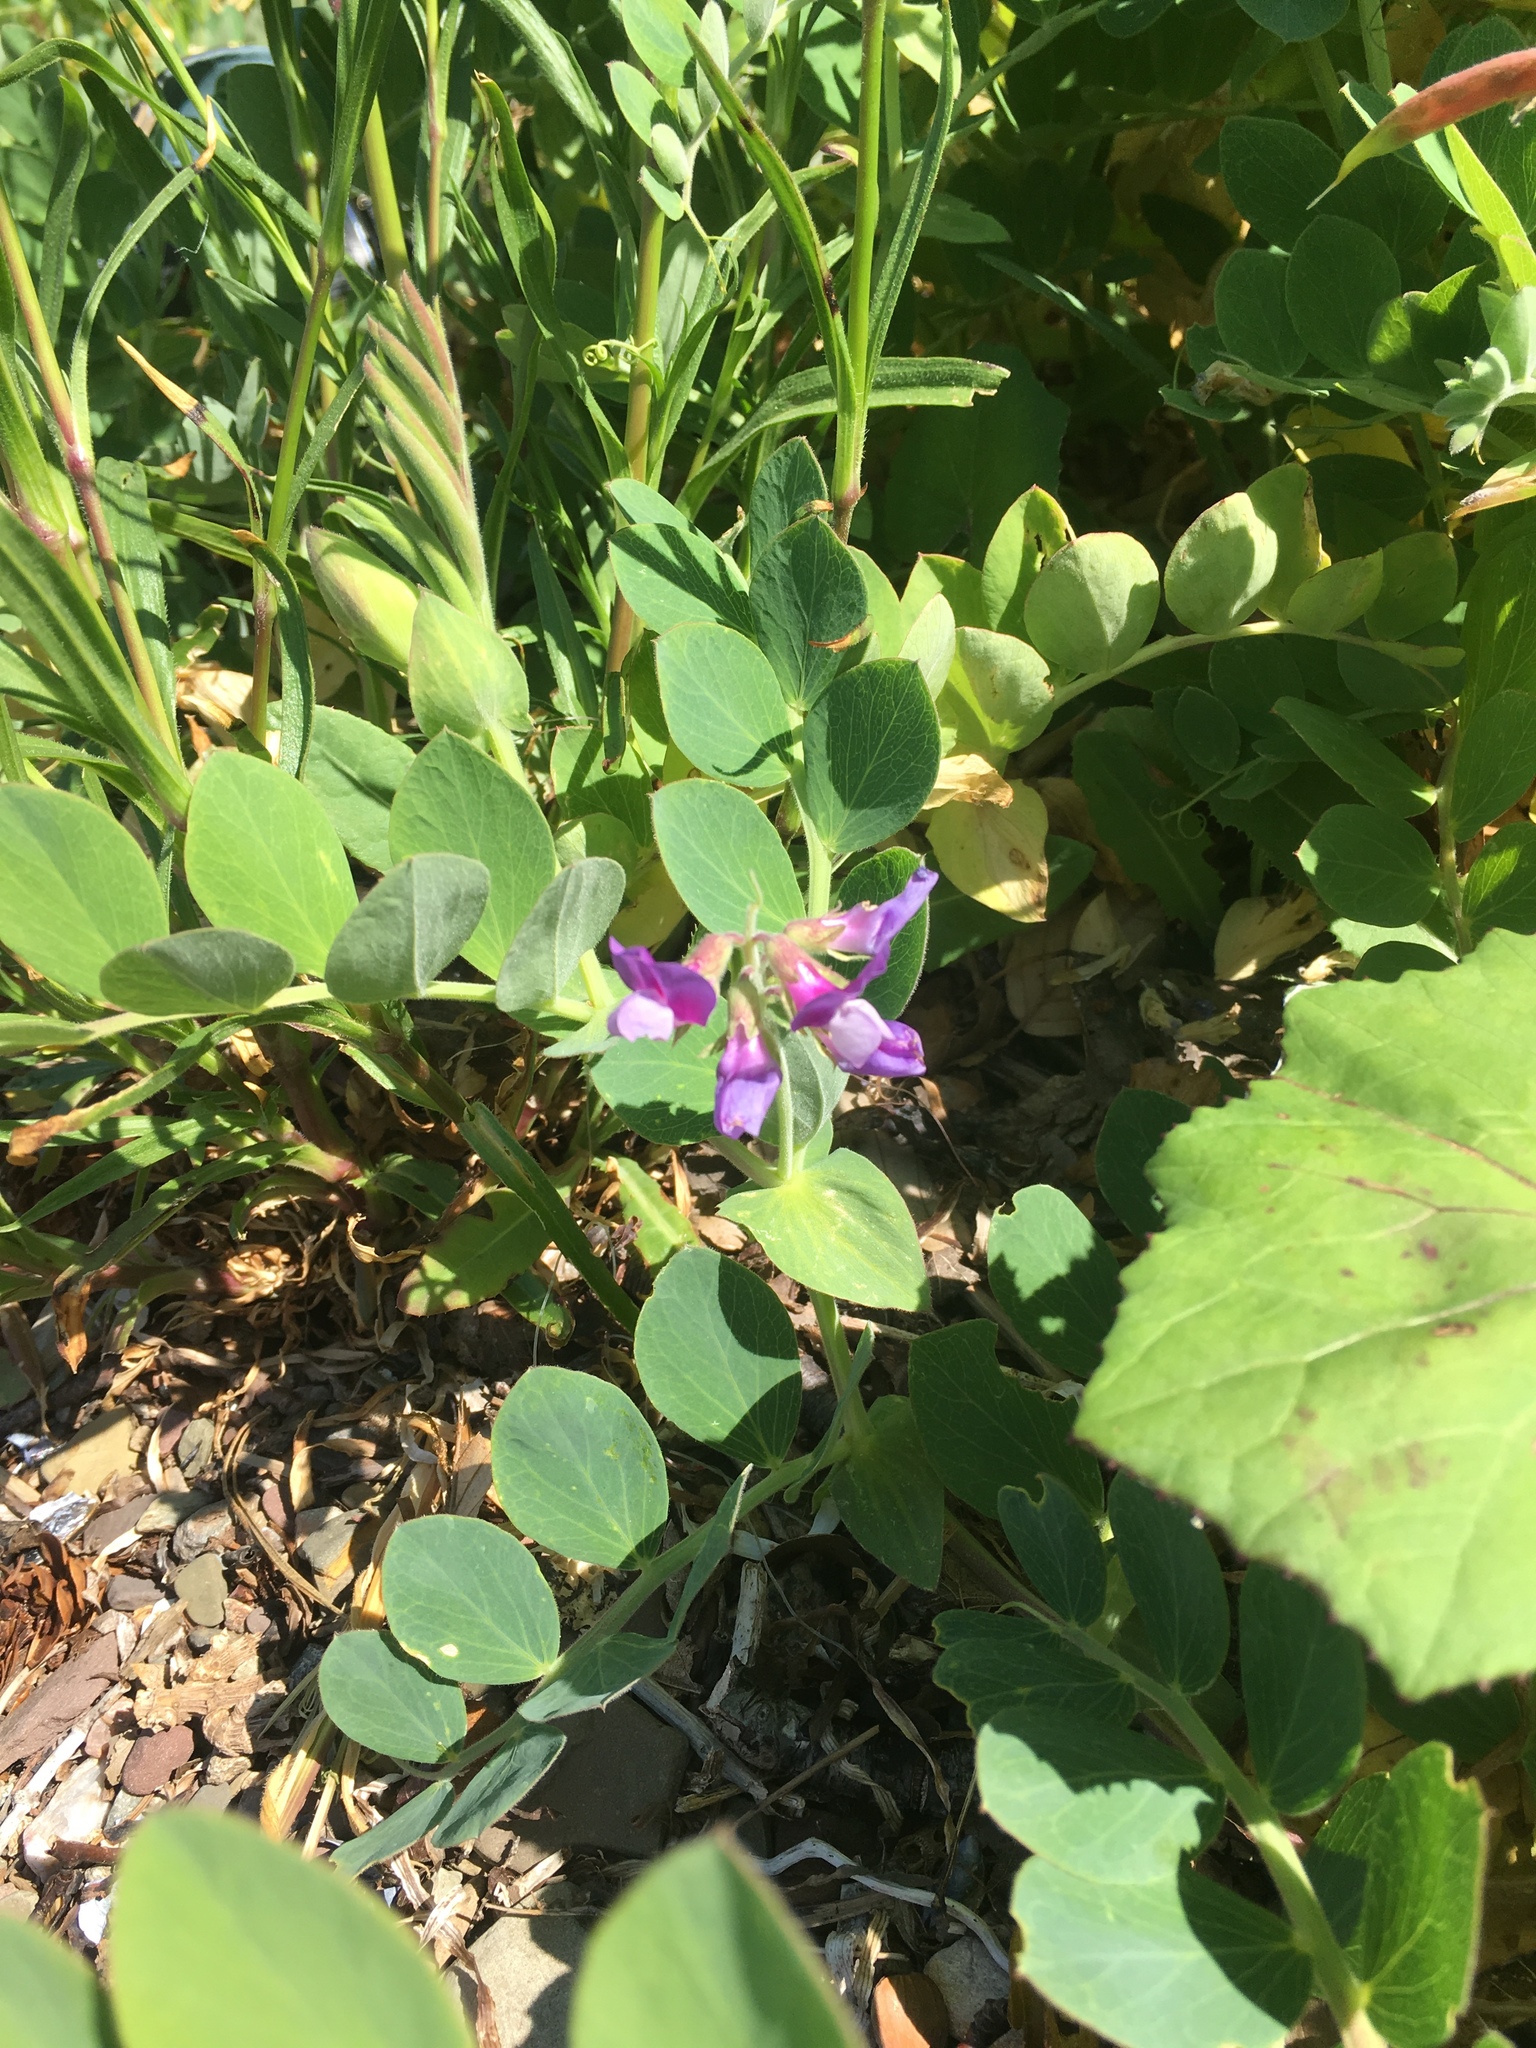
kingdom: Plantae
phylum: Tracheophyta
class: Magnoliopsida
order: Fabales
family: Fabaceae
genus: Lathyrus
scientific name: Lathyrus japonicus
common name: Sea pea
